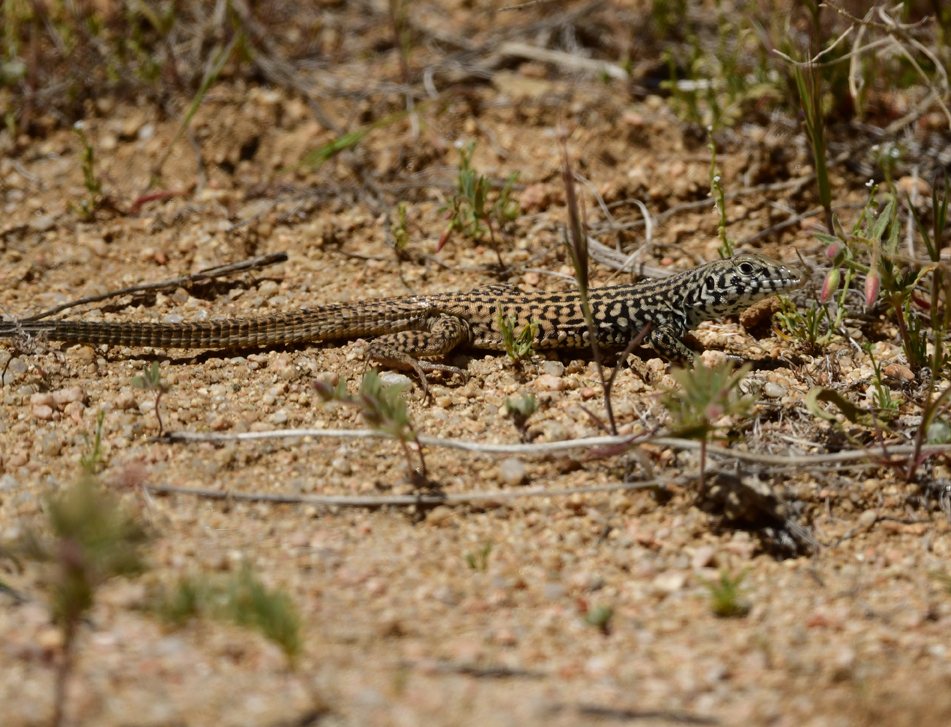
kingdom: Animalia
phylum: Chordata
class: Squamata
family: Teiidae
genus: Aspidoscelis
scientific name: Aspidoscelis tigris
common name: Tiger whiptail
